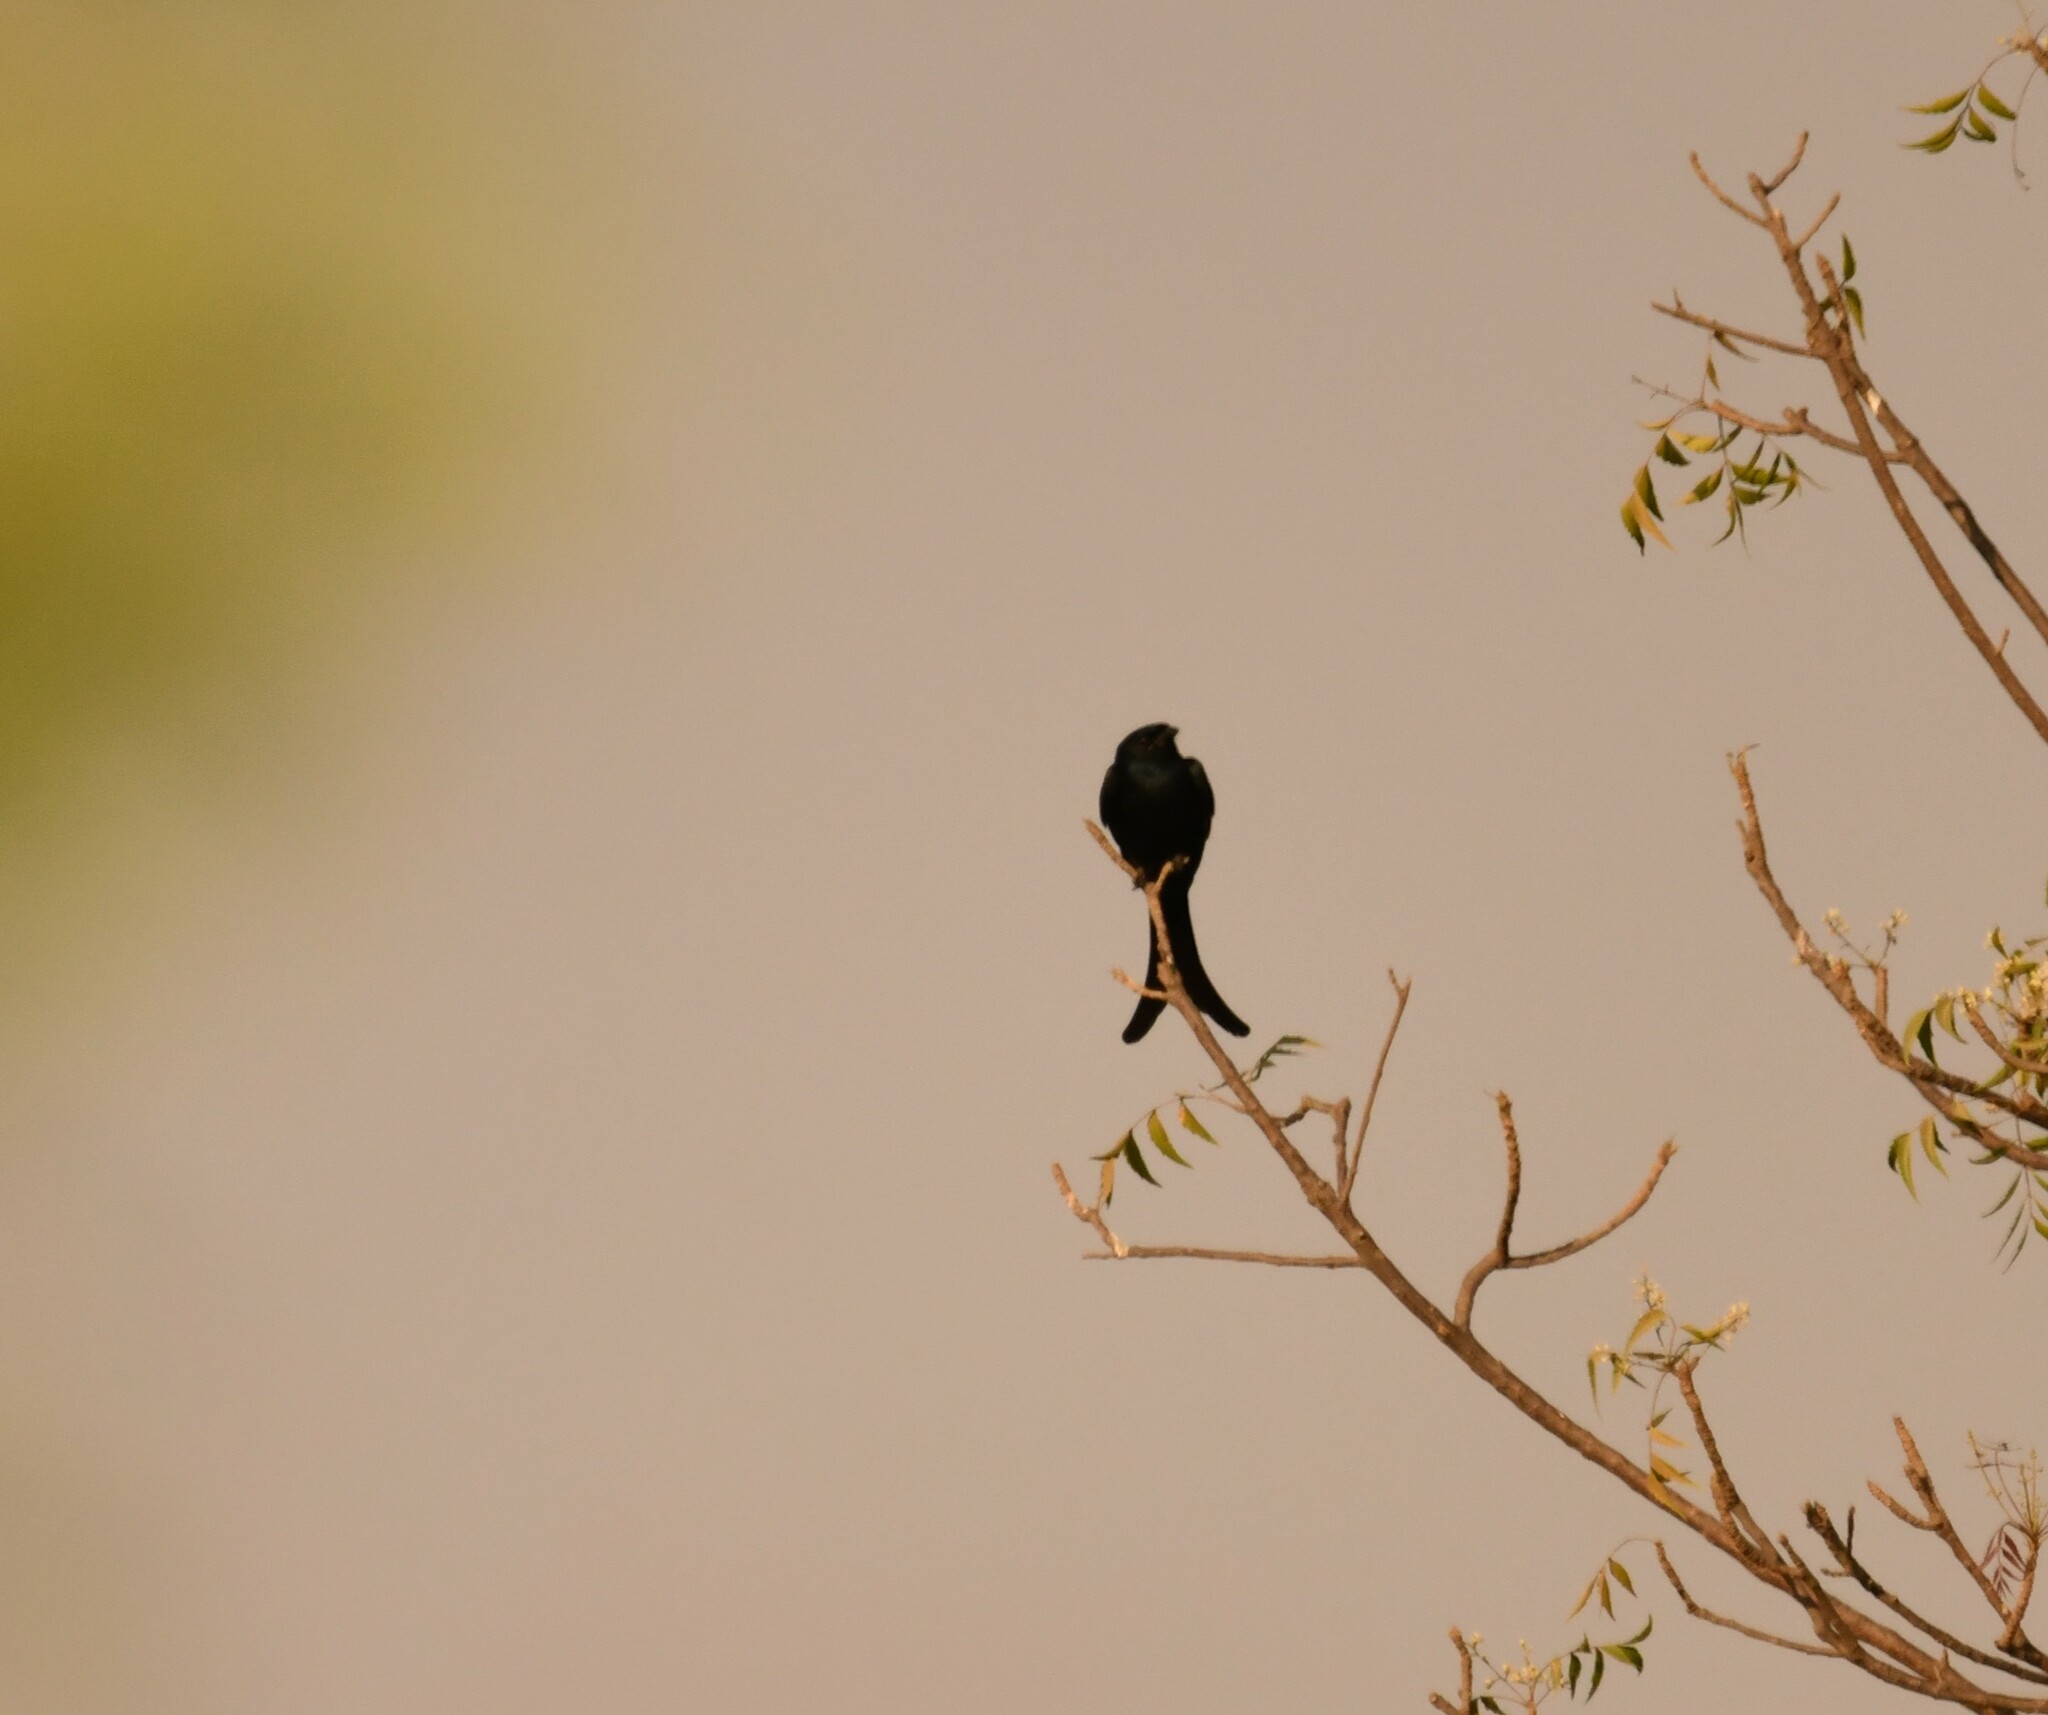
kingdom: Animalia
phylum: Chordata
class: Aves
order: Passeriformes
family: Dicruridae
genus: Dicrurus
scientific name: Dicrurus macrocercus
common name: Black drongo
